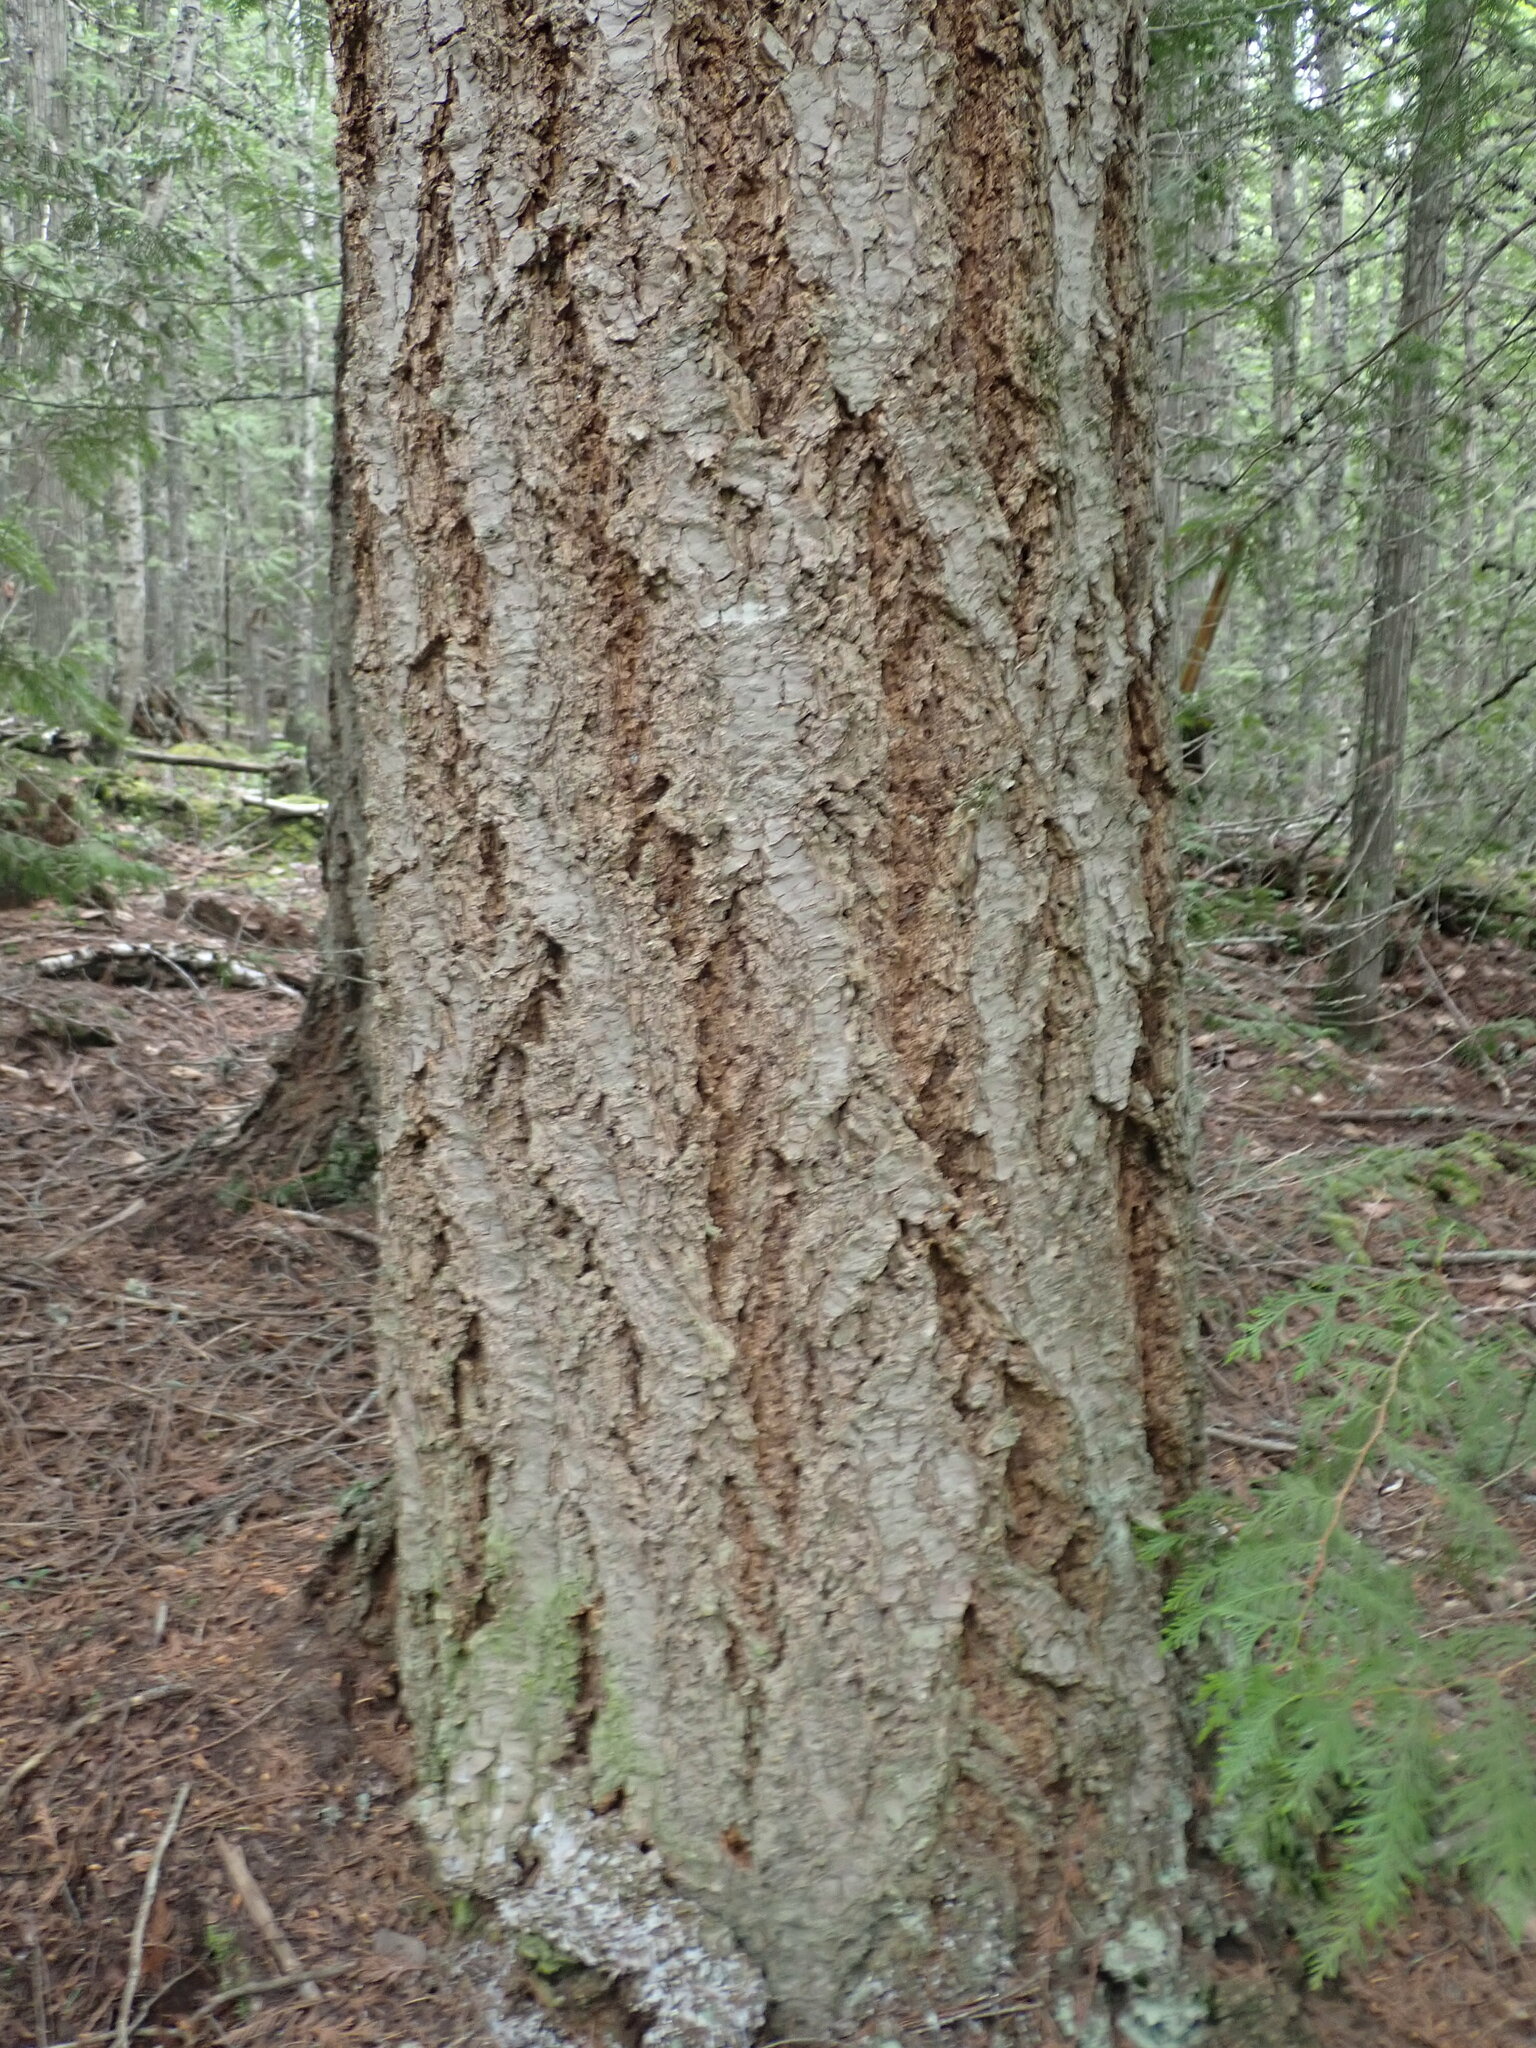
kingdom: Plantae
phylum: Tracheophyta
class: Pinopsida
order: Pinales
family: Pinaceae
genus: Pseudotsuga
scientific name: Pseudotsuga menziesii
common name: Douglas fir
